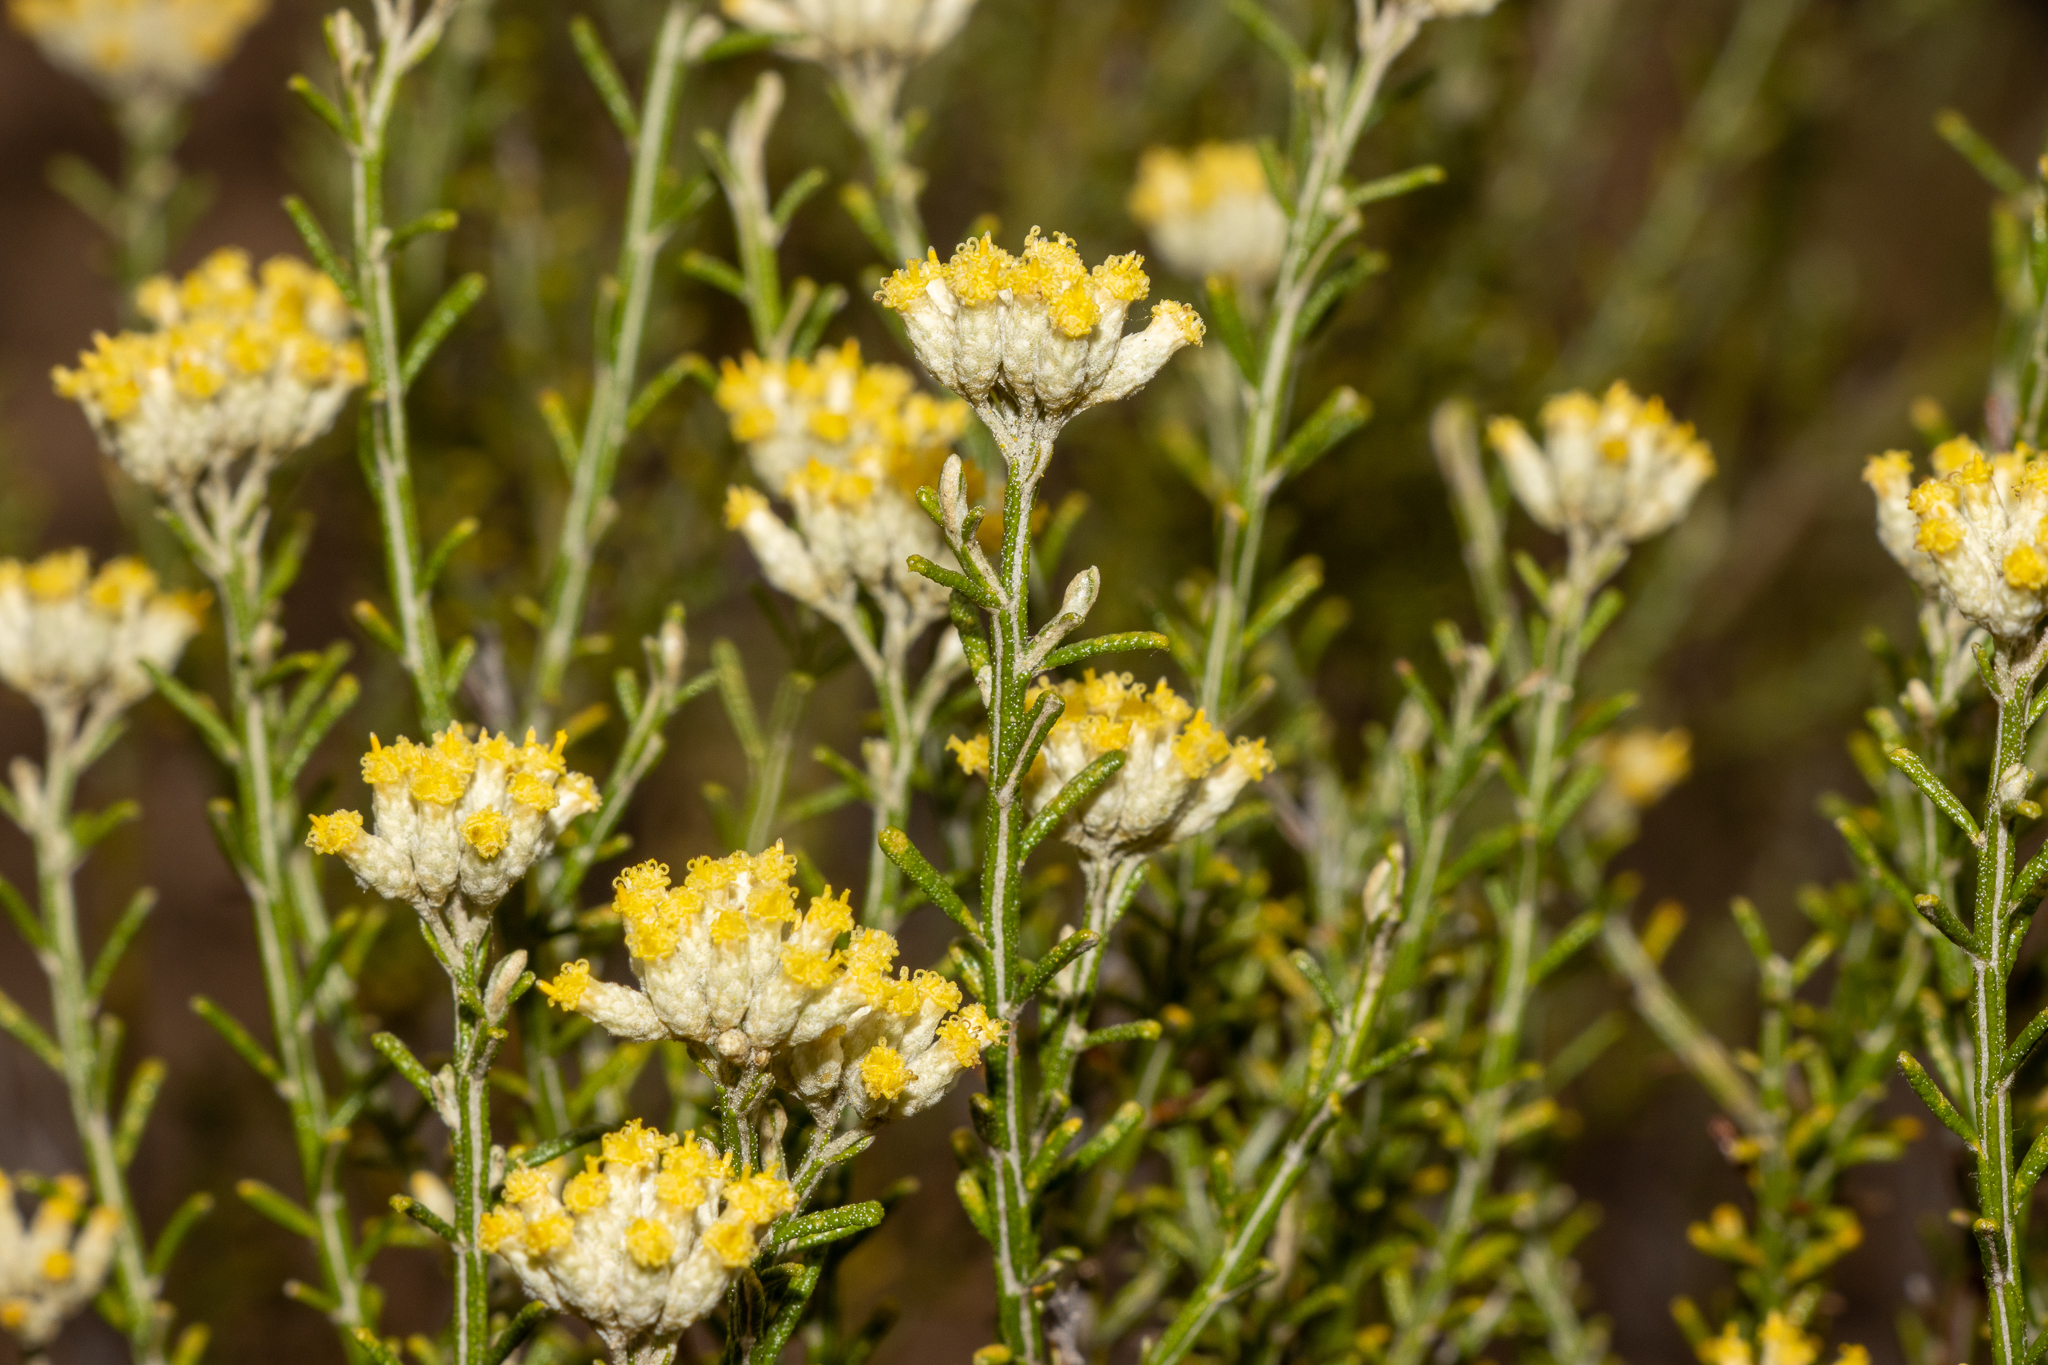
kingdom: Plantae
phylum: Tracheophyta
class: Magnoliopsida
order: Asterales
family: Asteraceae
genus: Ozothamnus
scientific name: Ozothamnus catadromus
